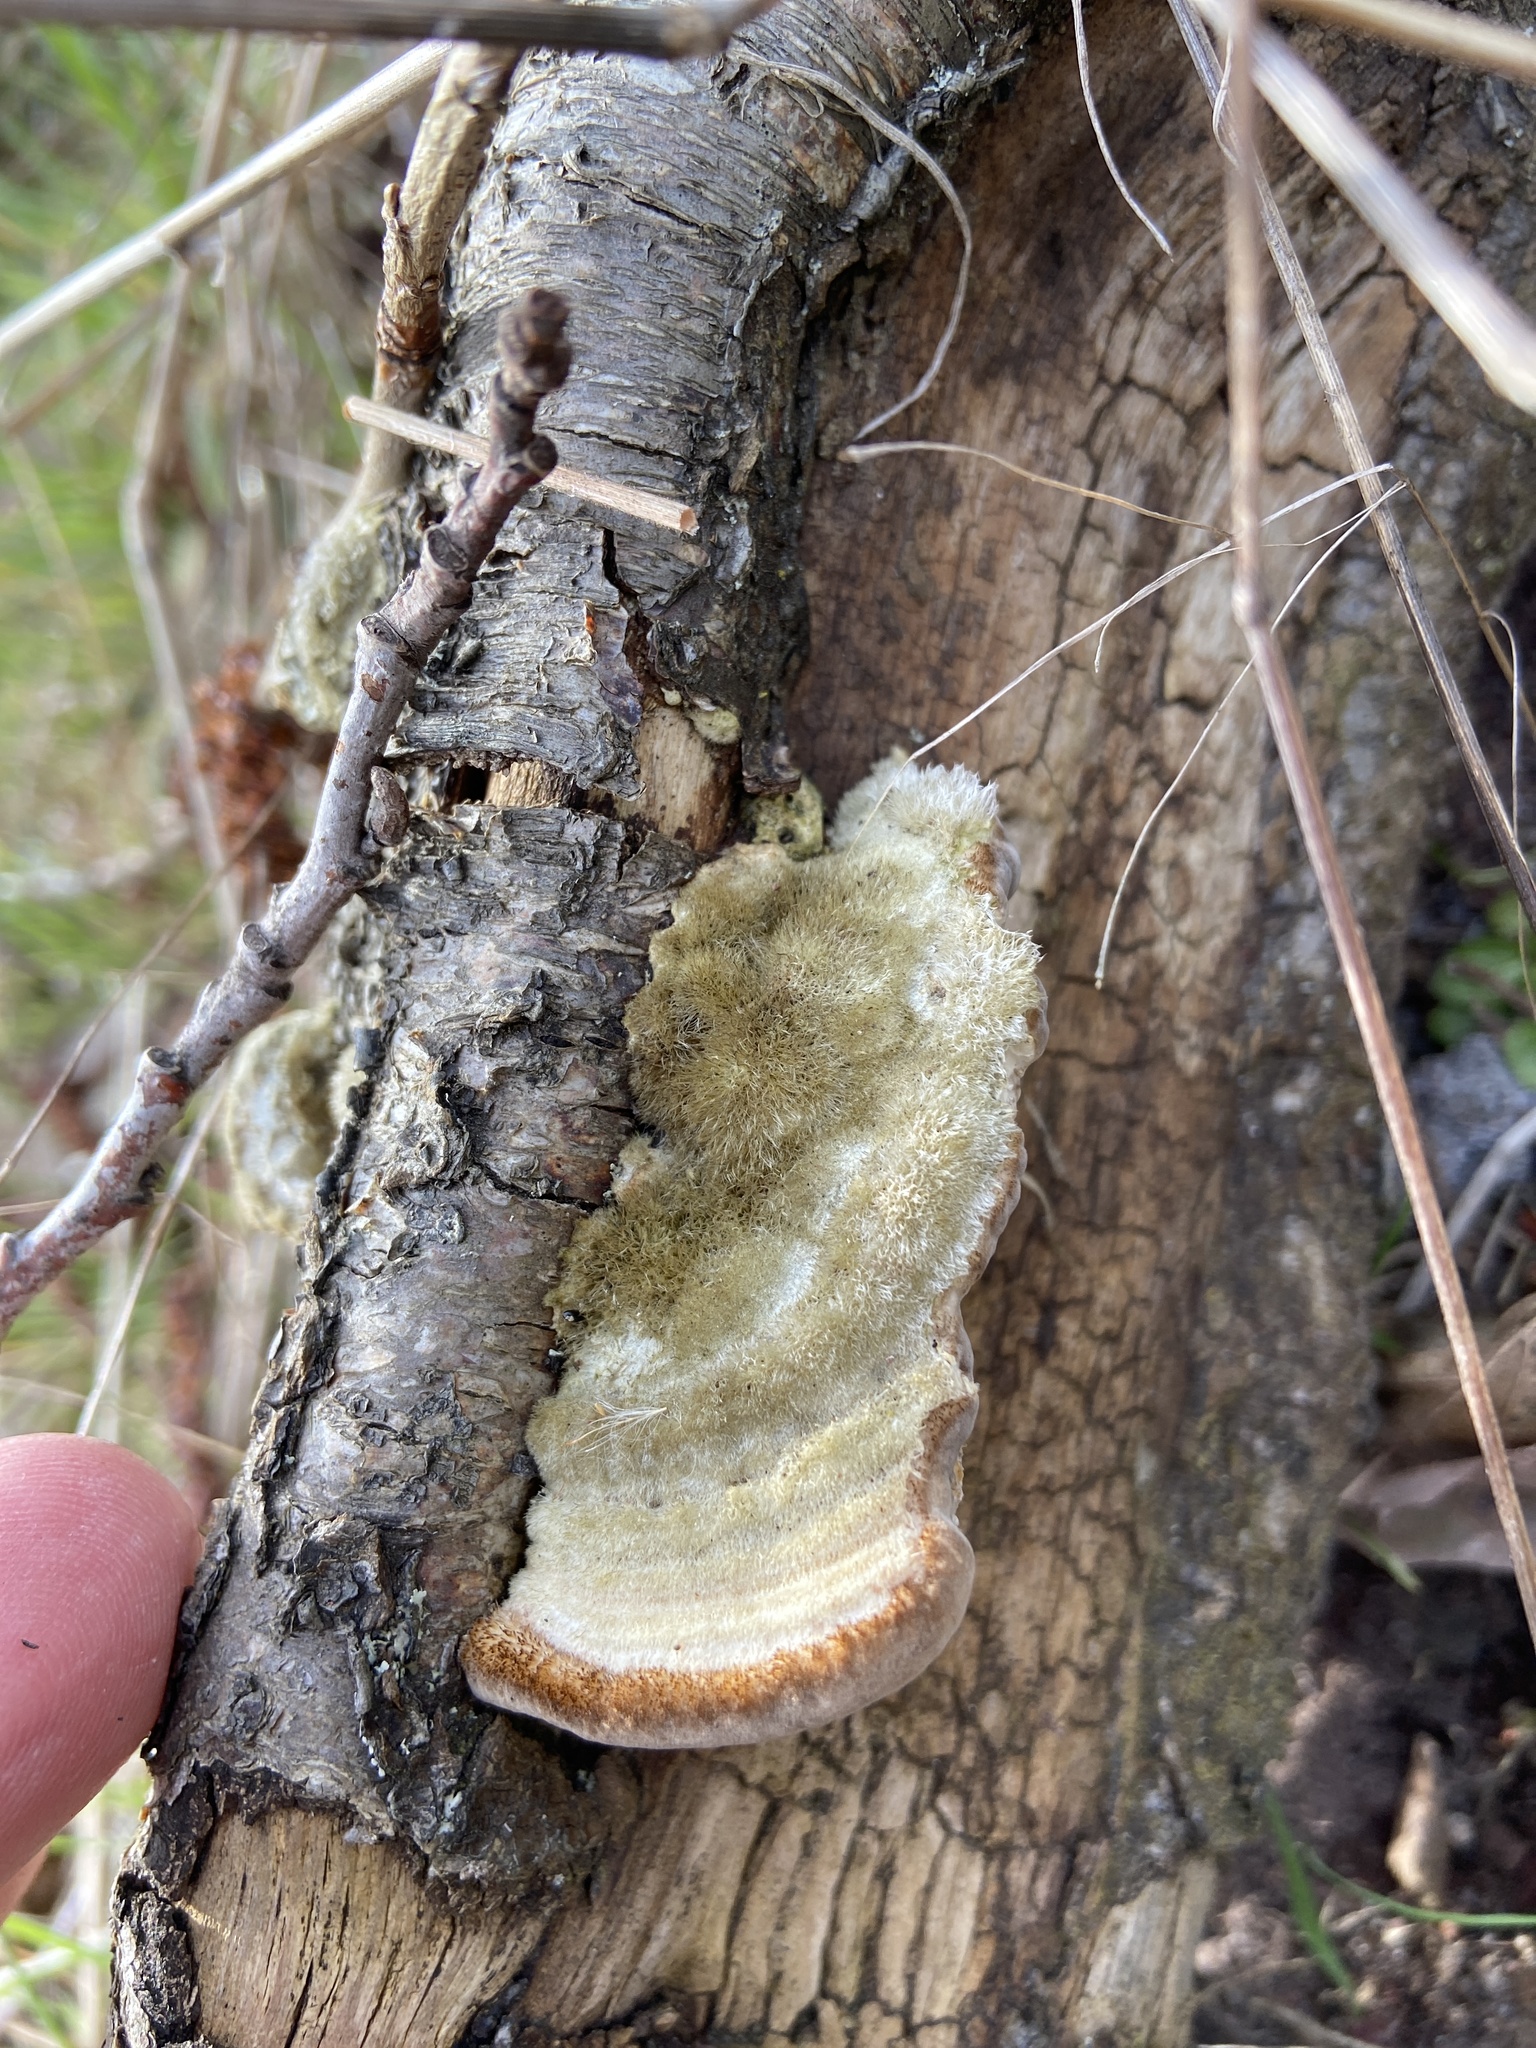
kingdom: Fungi
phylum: Basidiomycota
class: Agaricomycetes
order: Polyporales
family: Polyporaceae
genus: Trametes
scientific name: Trametes hirsuta
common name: Hairy bracket
